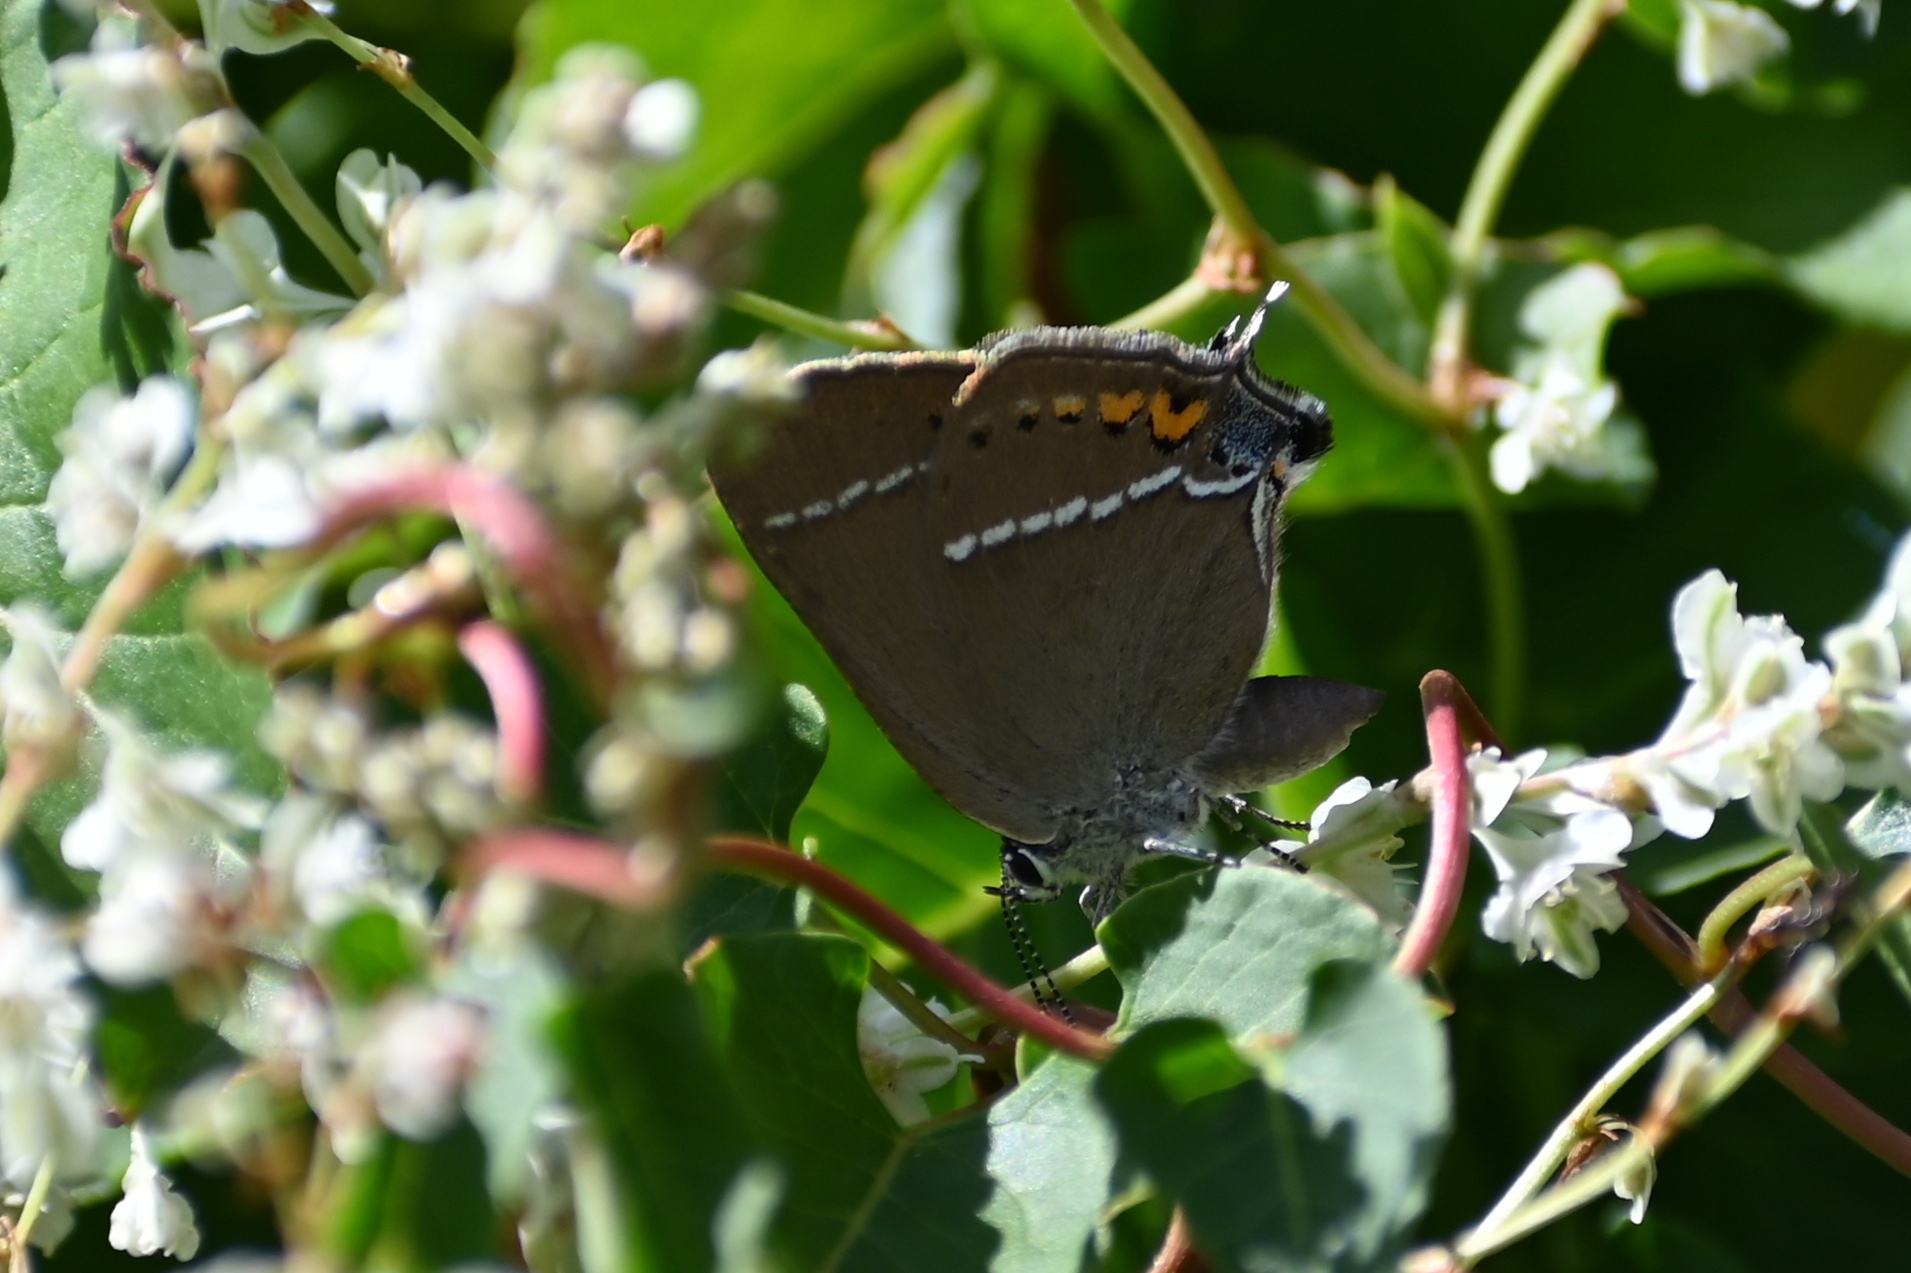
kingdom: Animalia
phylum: Arthropoda
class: Insecta
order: Lepidoptera
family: Lycaenidae
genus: Tuttiola
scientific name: Tuttiola spini
